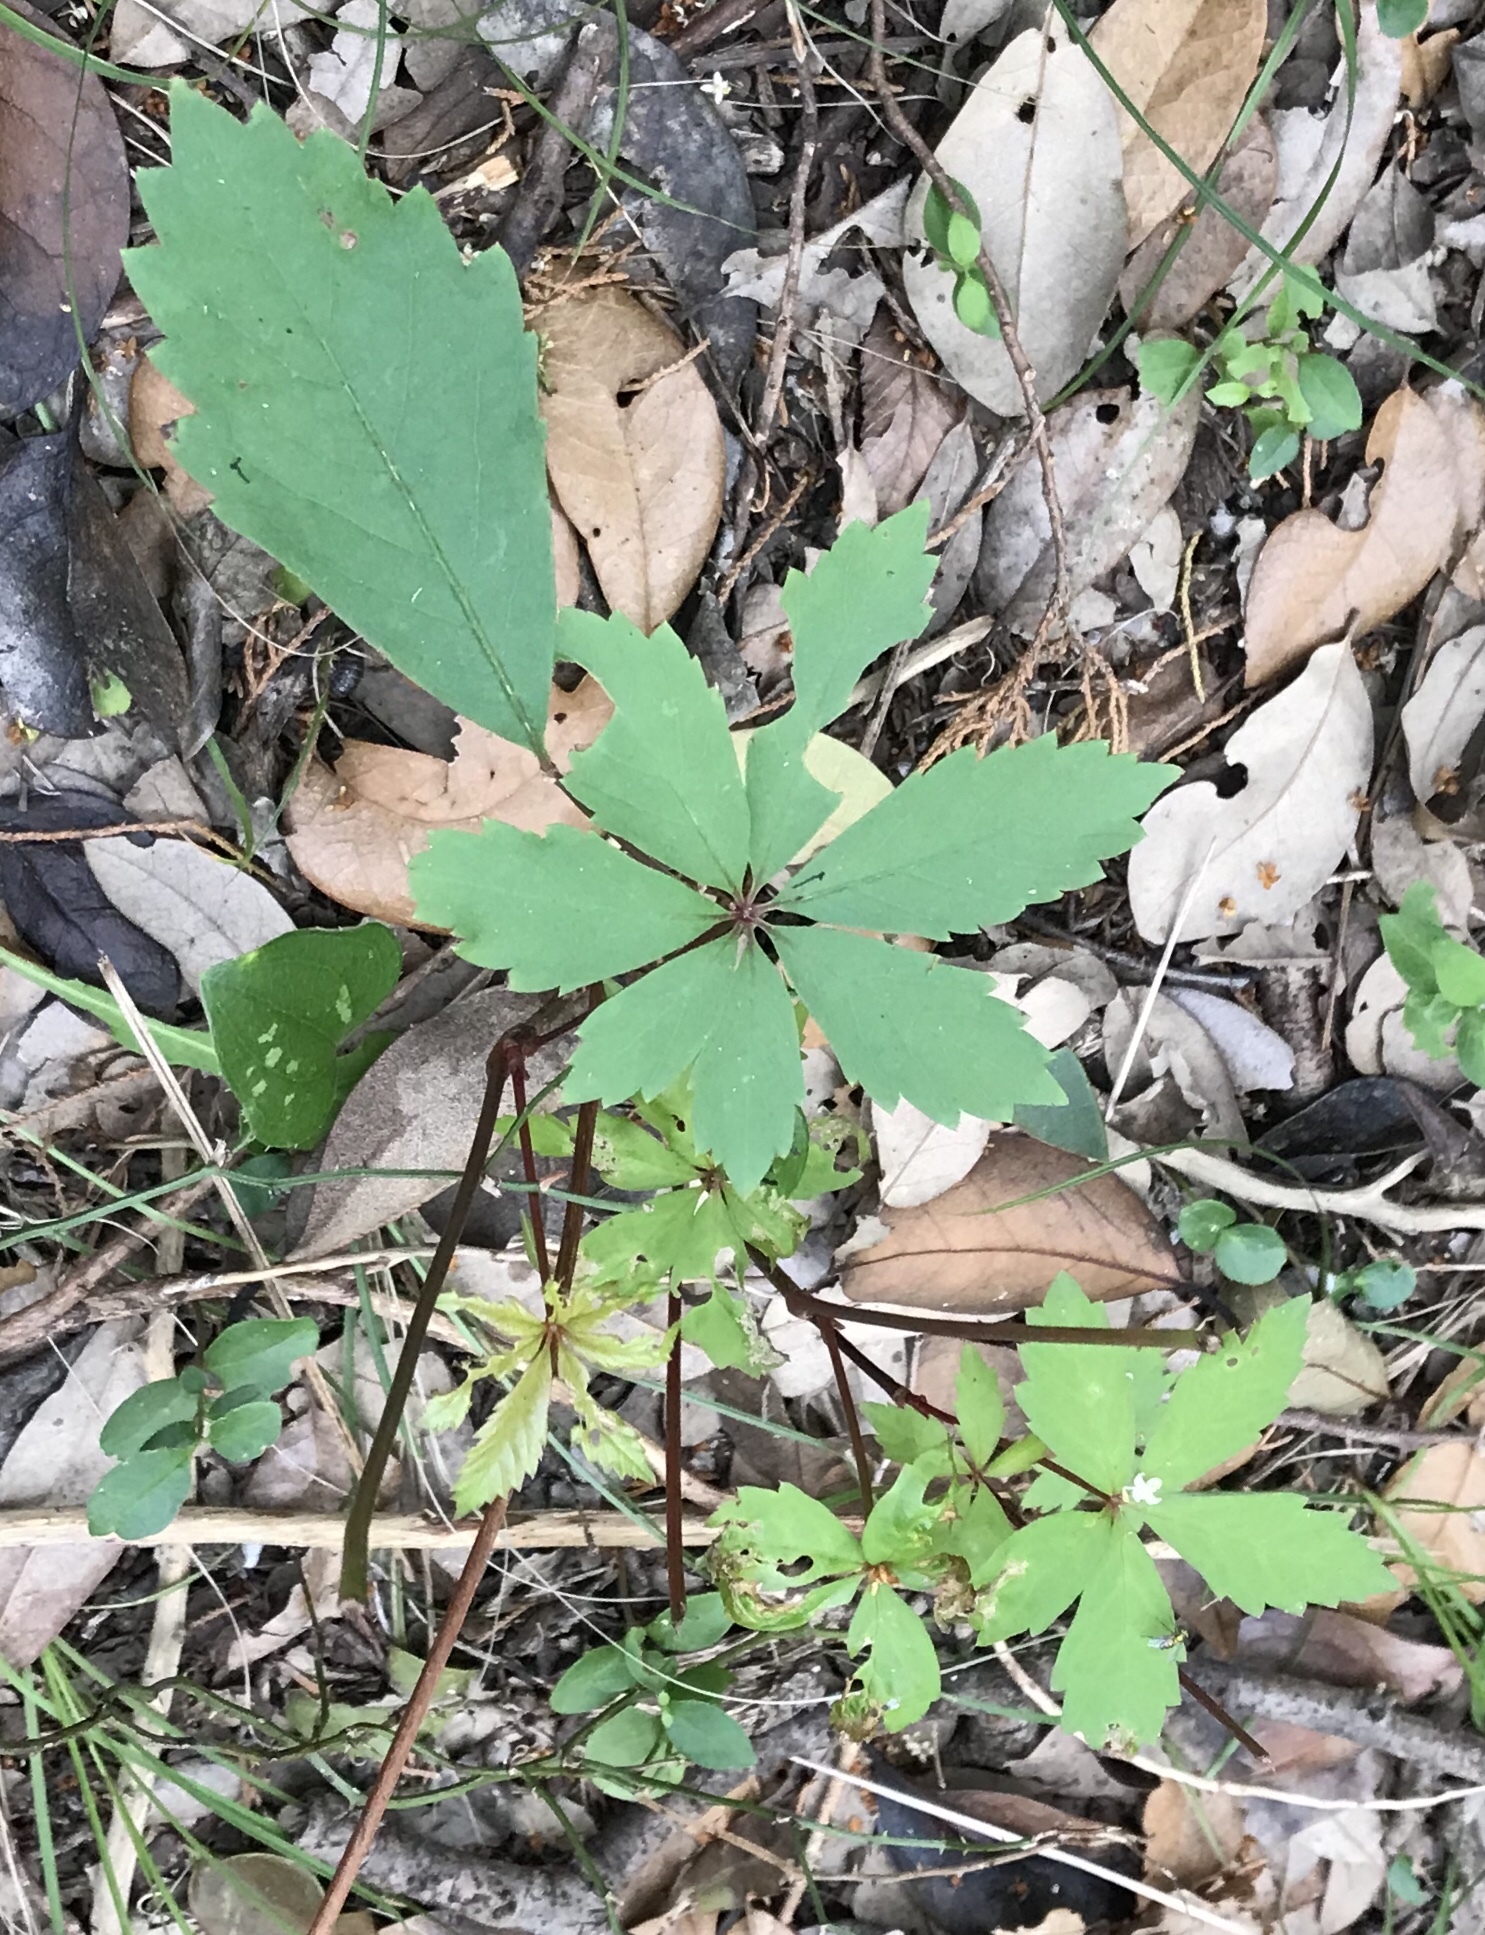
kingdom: Plantae
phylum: Tracheophyta
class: Magnoliopsida
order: Vitales
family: Vitaceae
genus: Parthenocissus
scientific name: Parthenocissus quinquefolia
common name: Virginia-creeper
